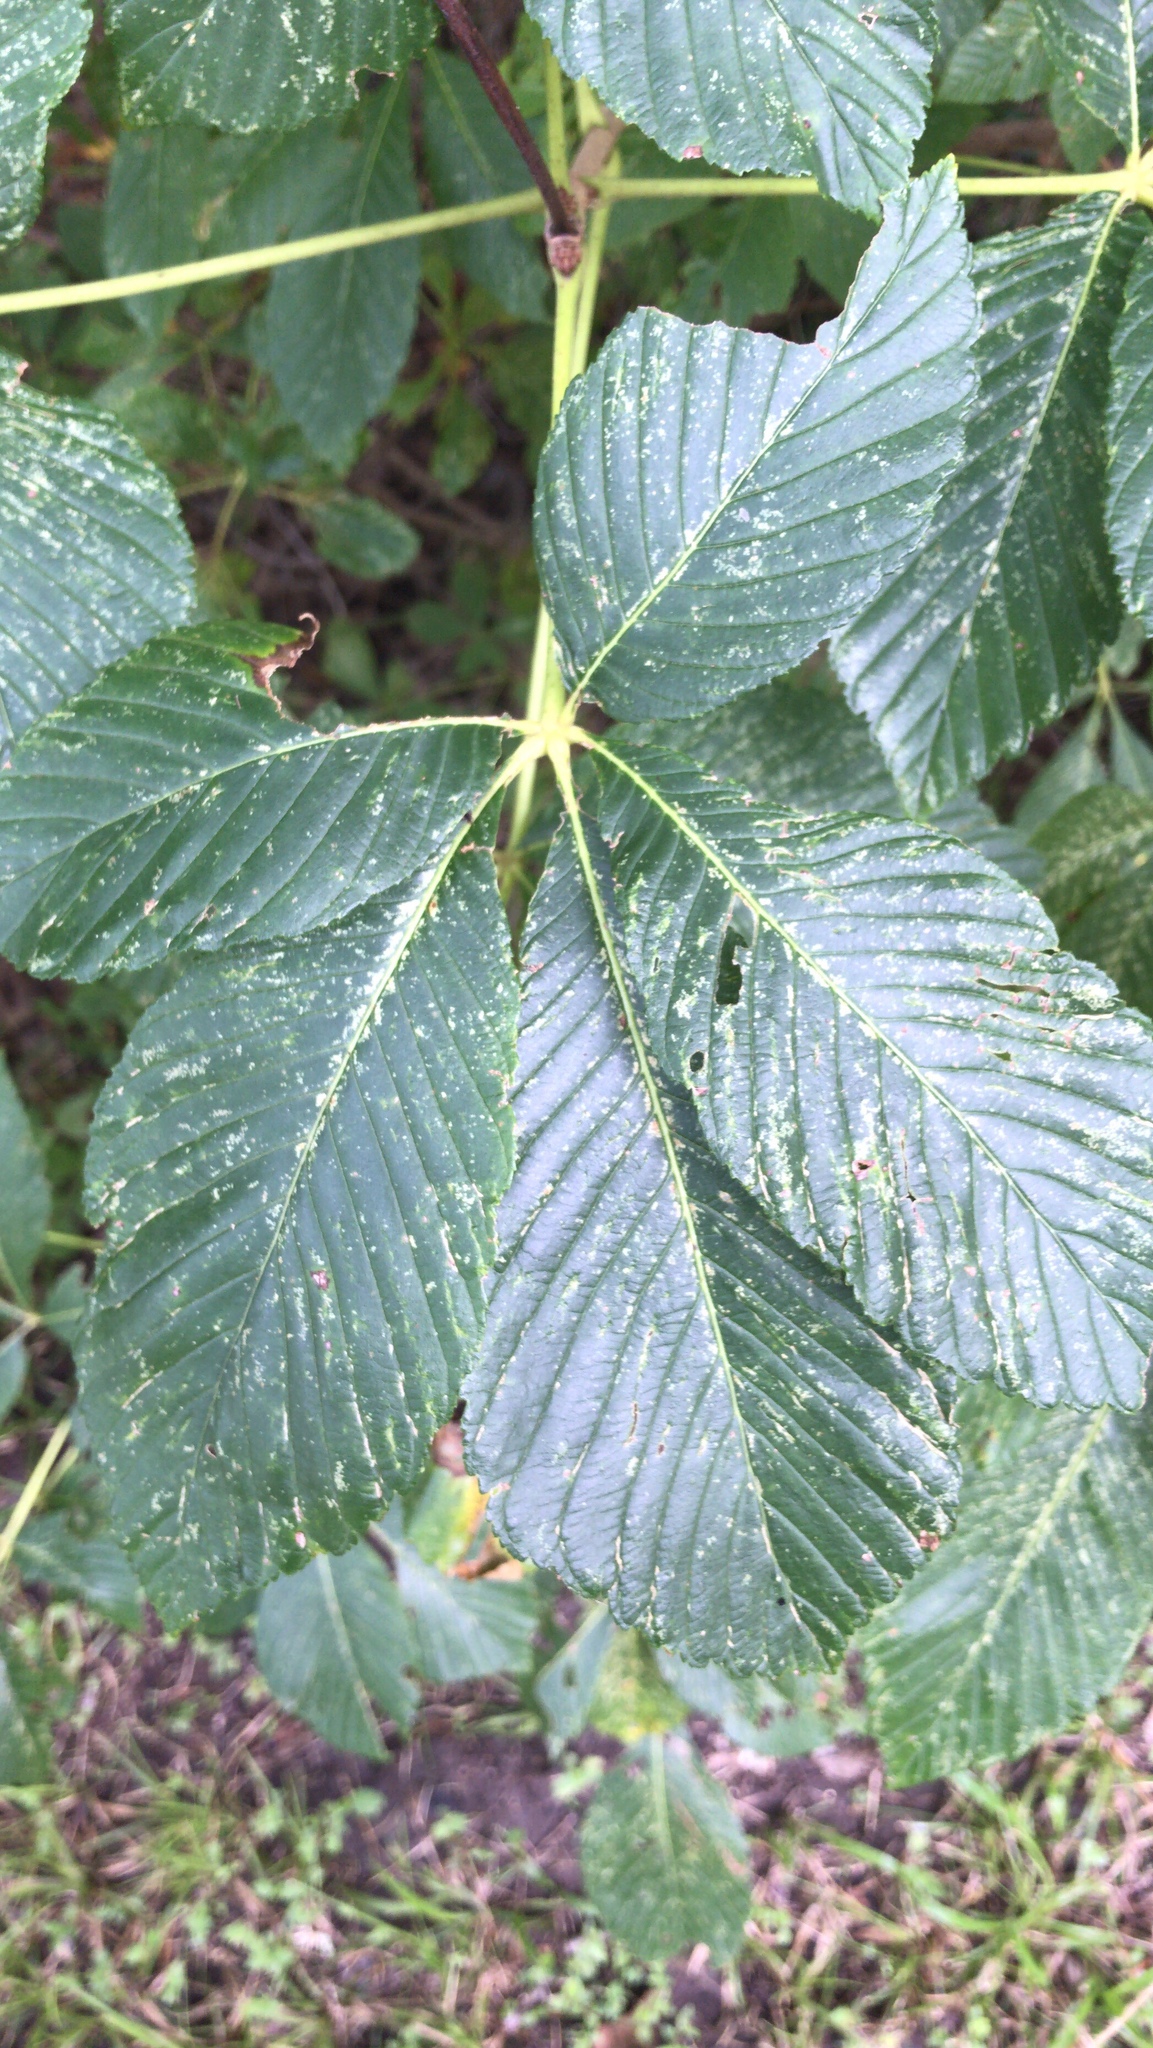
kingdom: Plantae
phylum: Tracheophyta
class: Magnoliopsida
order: Sapindales
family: Sapindaceae
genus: Aesculus
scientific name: Aesculus pavia
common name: Red buckeye
